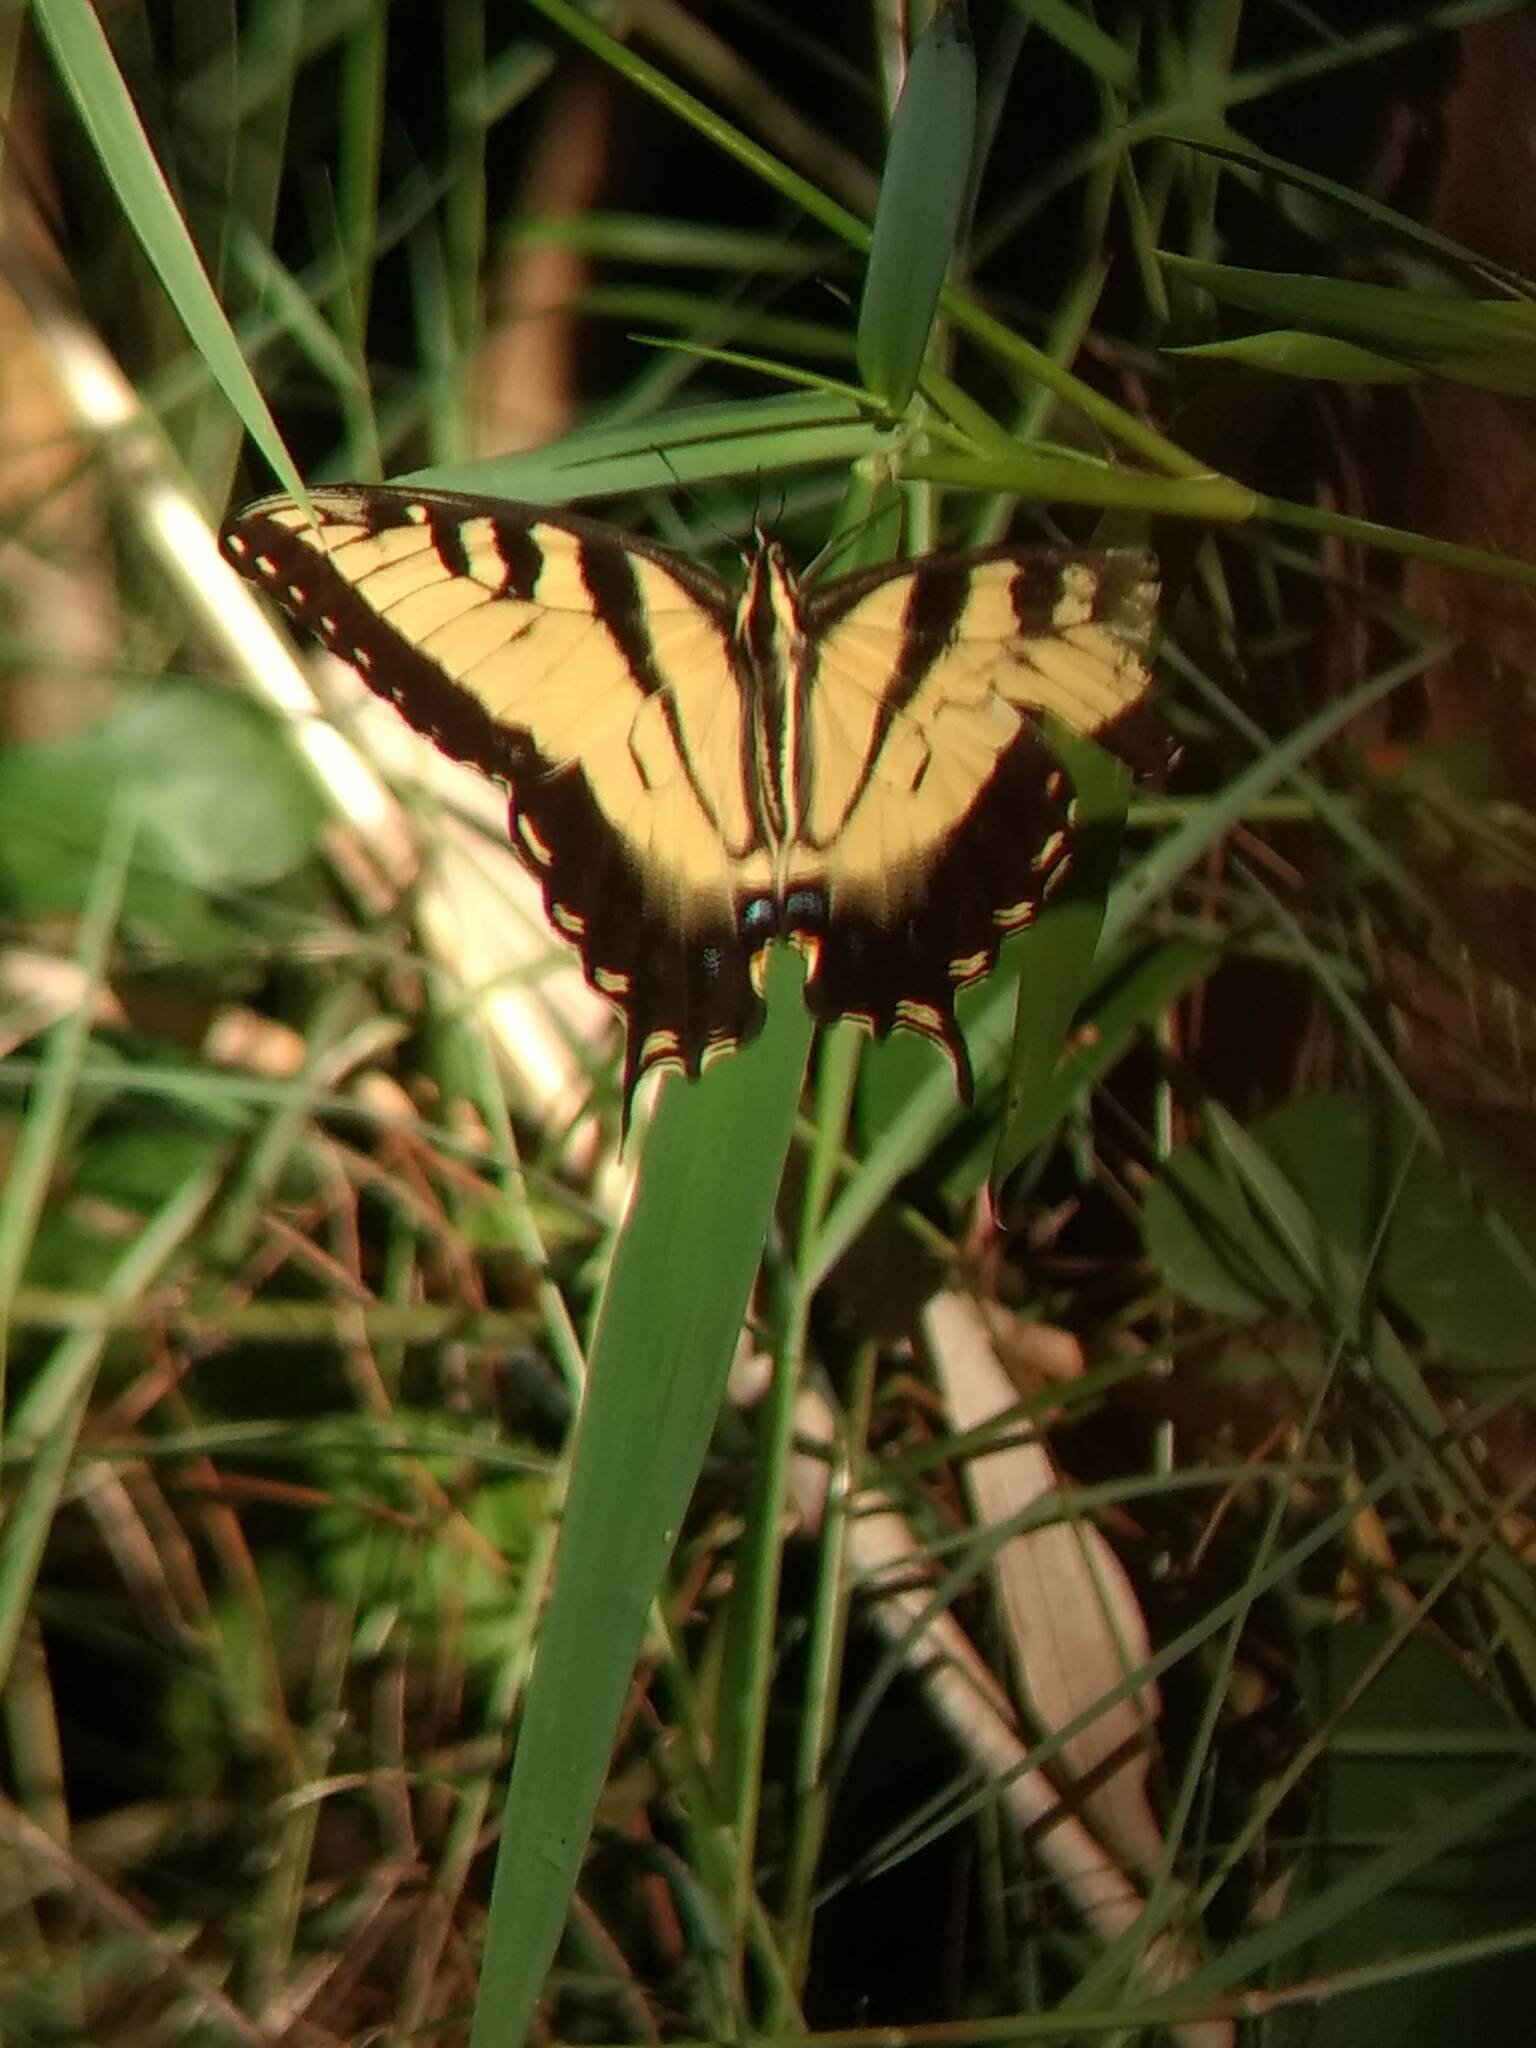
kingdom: Animalia
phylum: Arthropoda
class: Insecta
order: Lepidoptera
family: Papilionidae
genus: Papilio
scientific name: Papilio glaucus
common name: Tiger swallowtail
